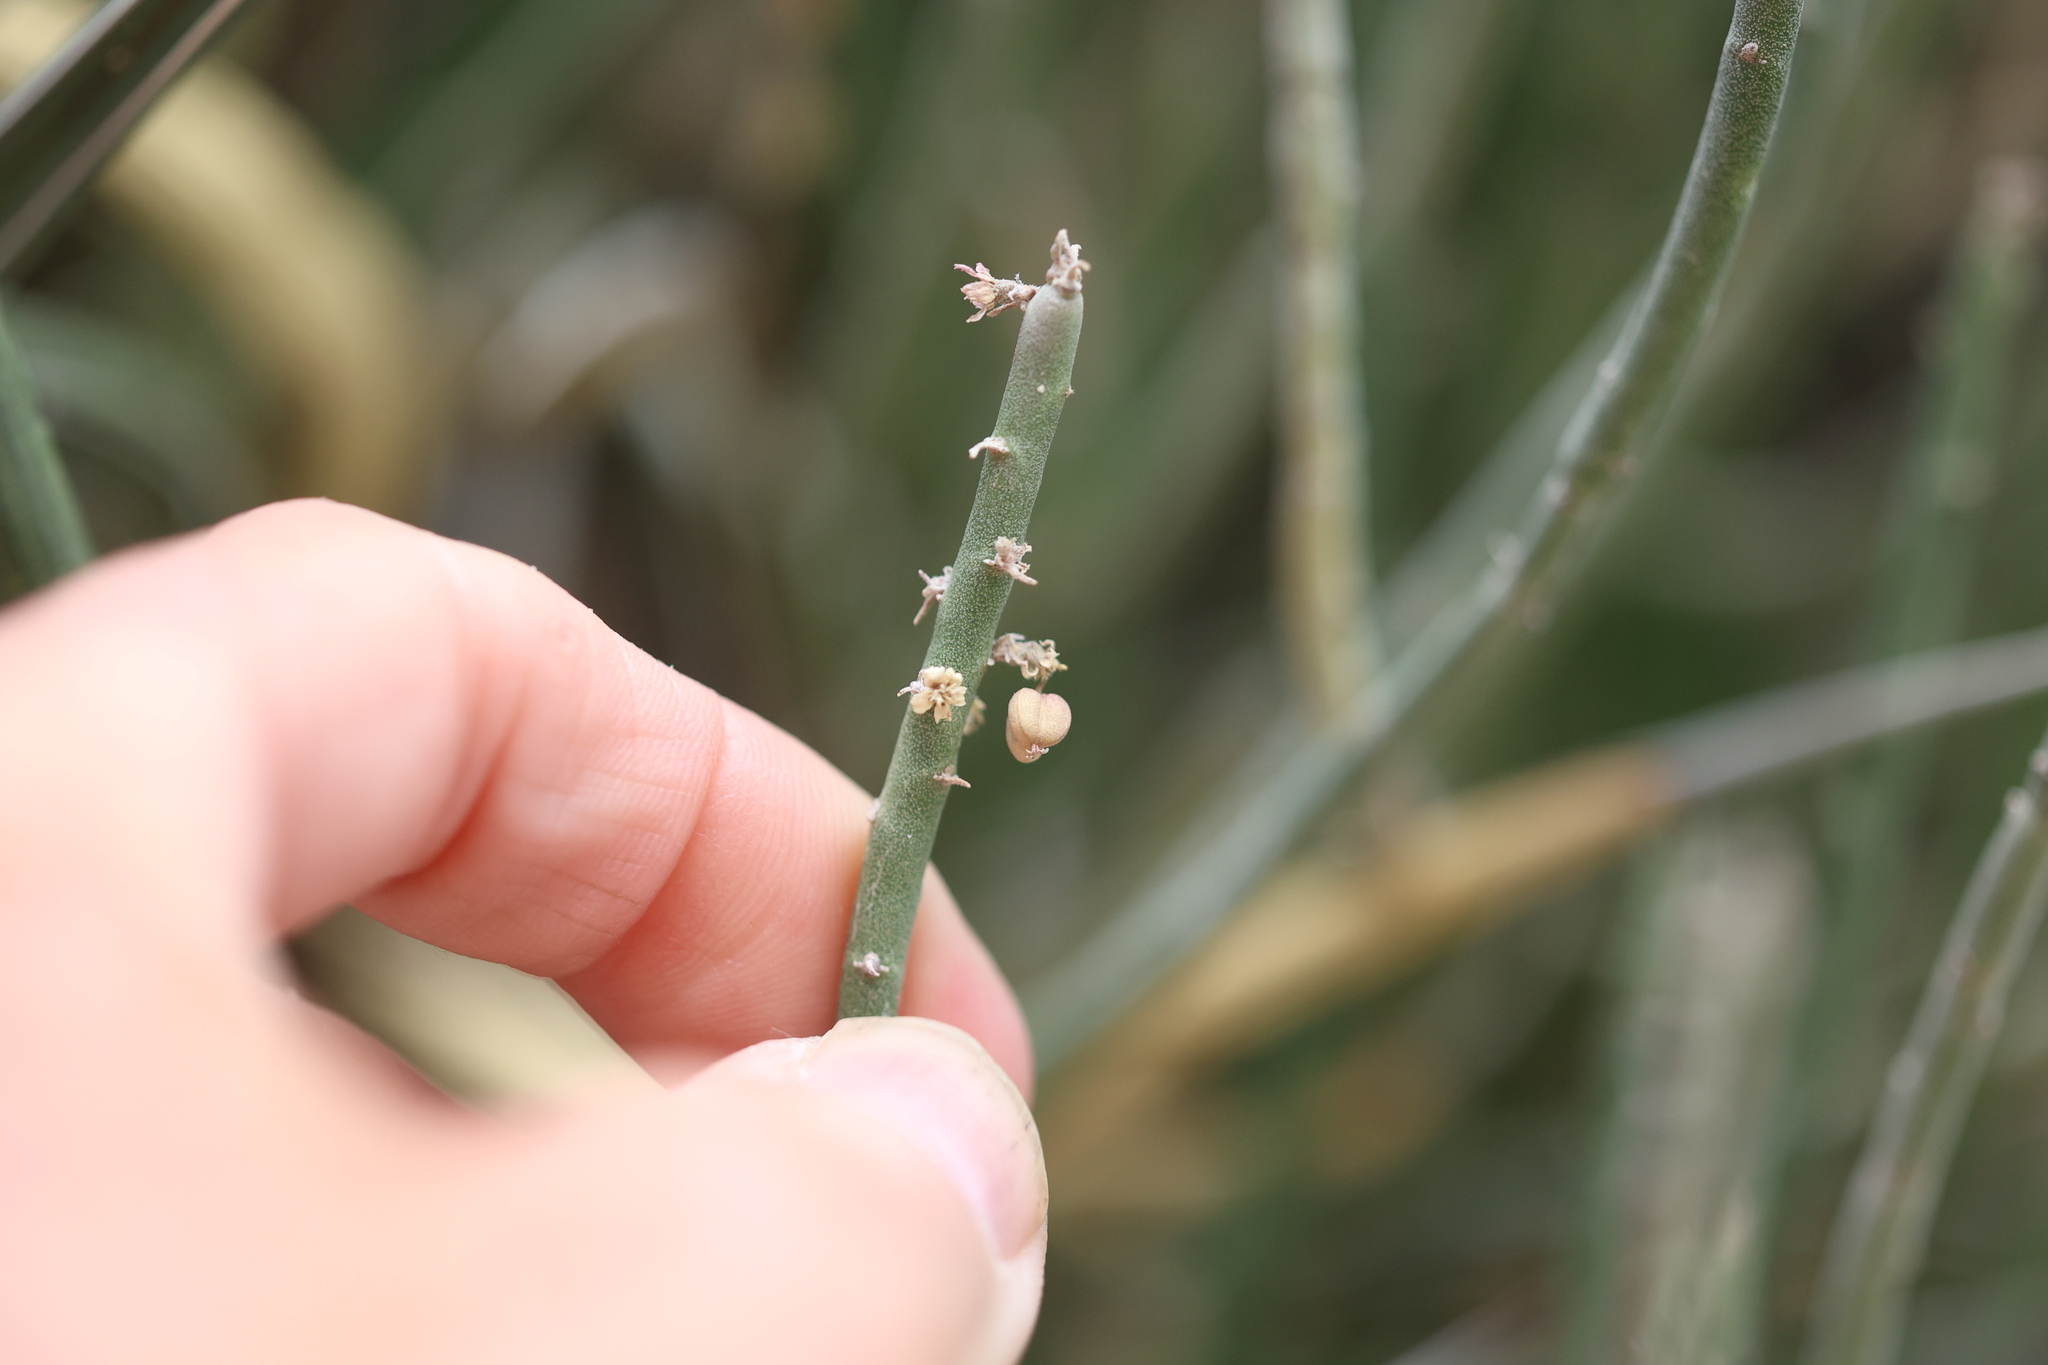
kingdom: Plantae
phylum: Tracheophyta
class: Magnoliopsida
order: Malpighiales
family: Euphorbiaceae
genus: Euphorbia
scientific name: Euphorbia antisyphilitica
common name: Candelilla
